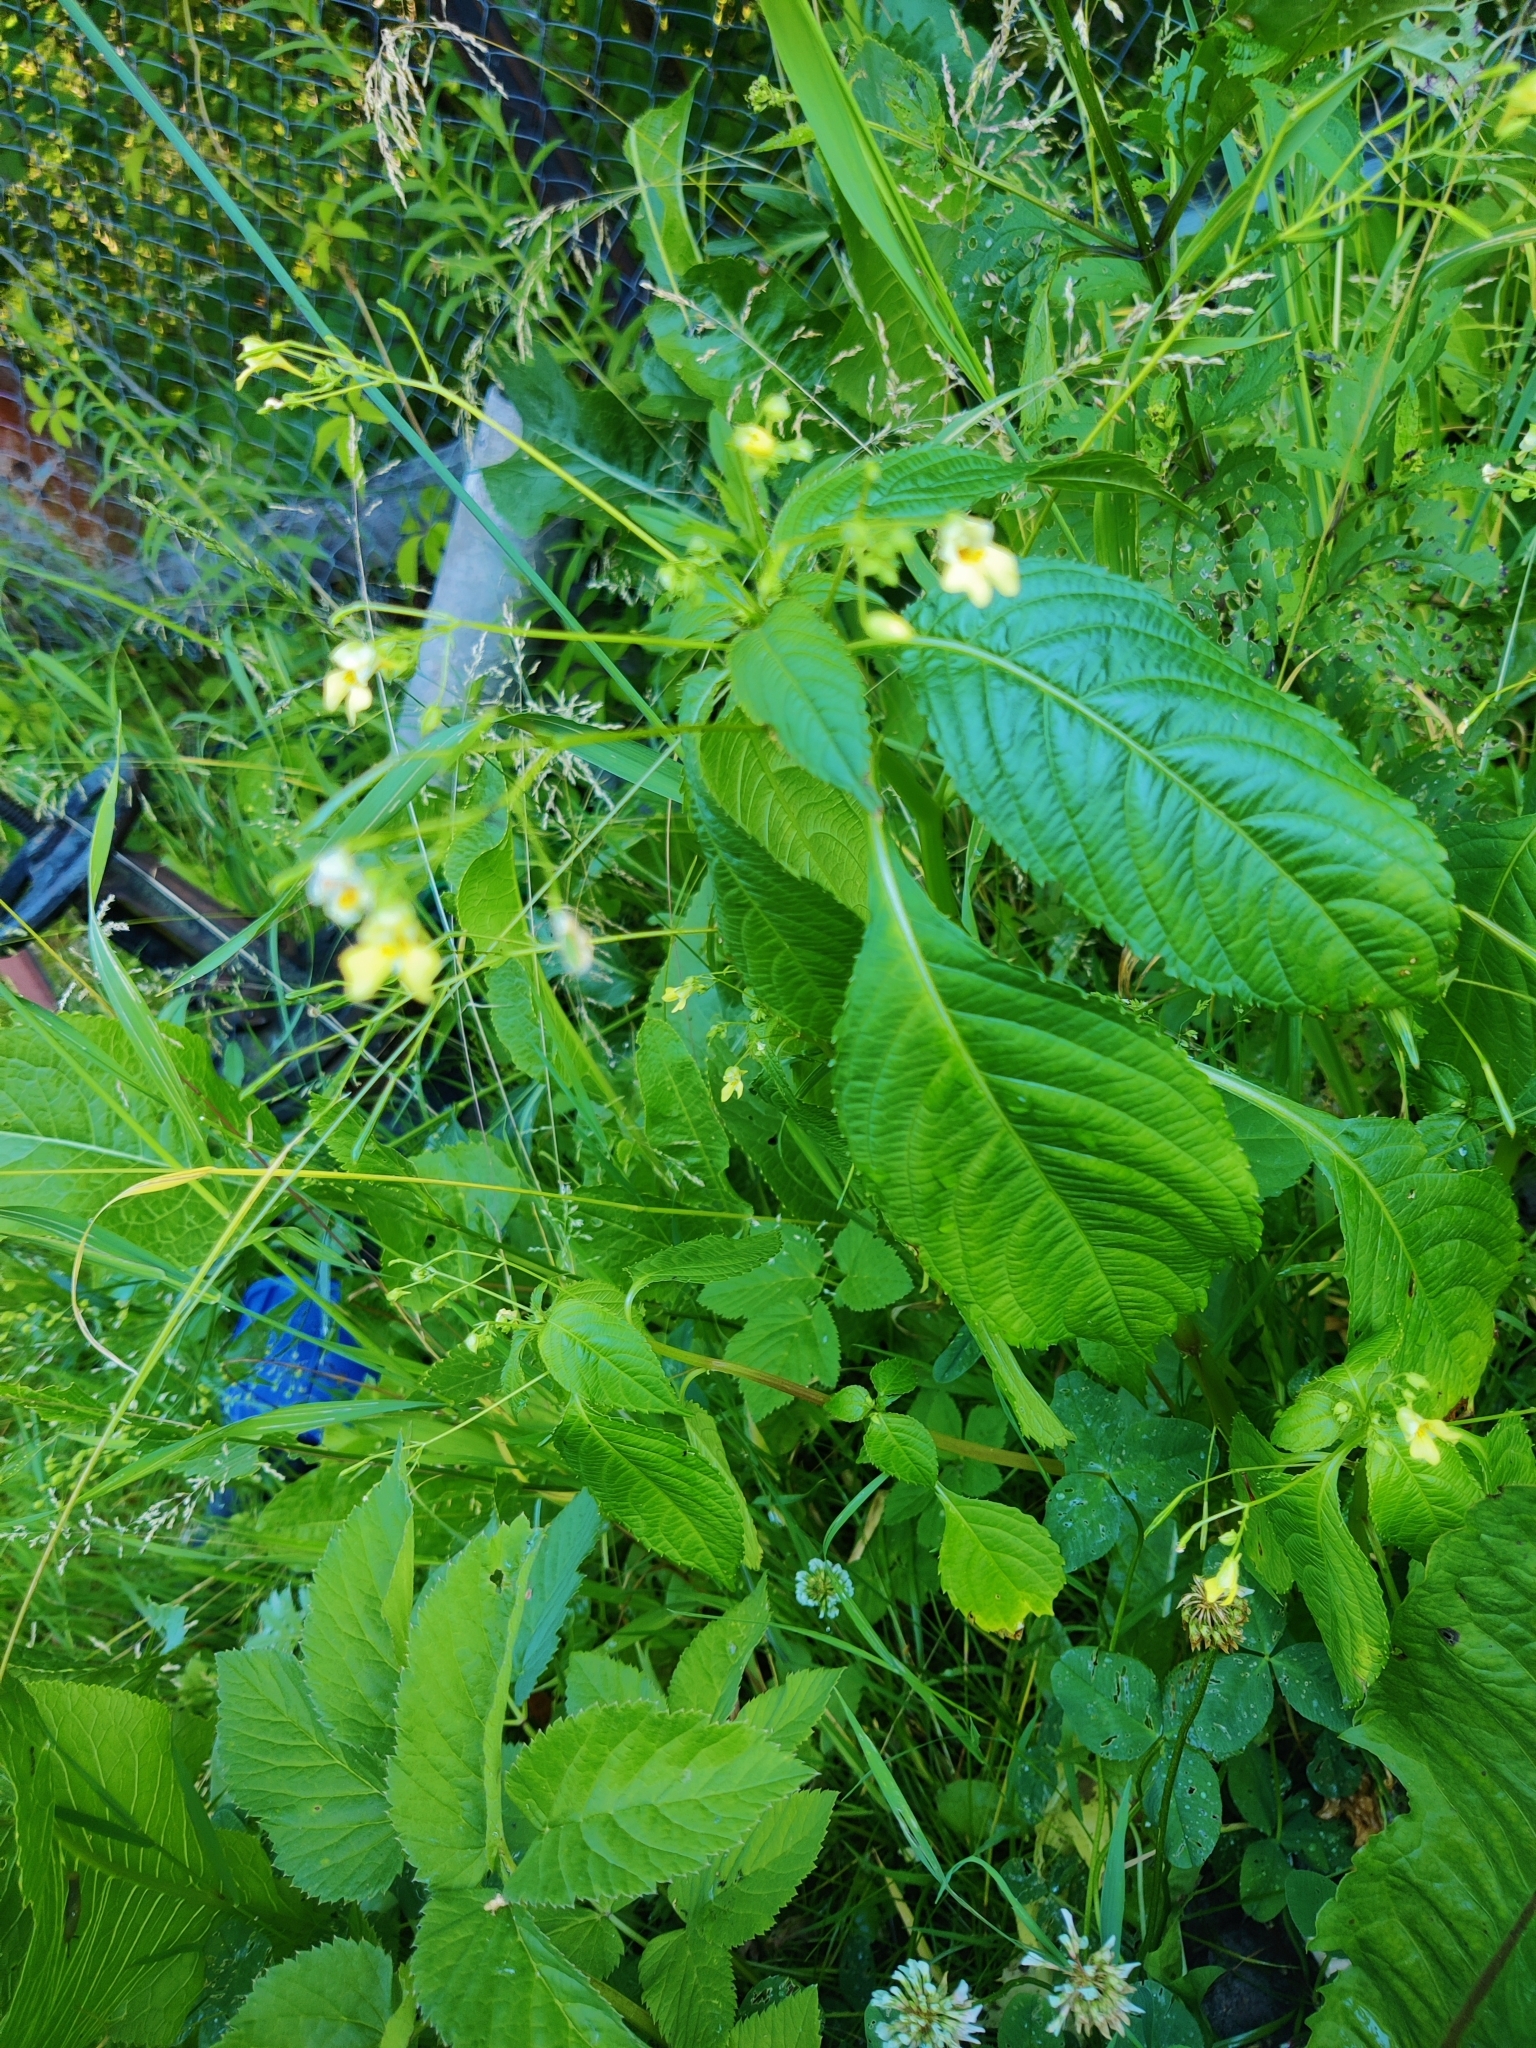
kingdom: Plantae
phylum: Tracheophyta
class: Magnoliopsida
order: Ericales
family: Balsaminaceae
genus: Impatiens
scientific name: Impatiens parviflora
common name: Small balsam
